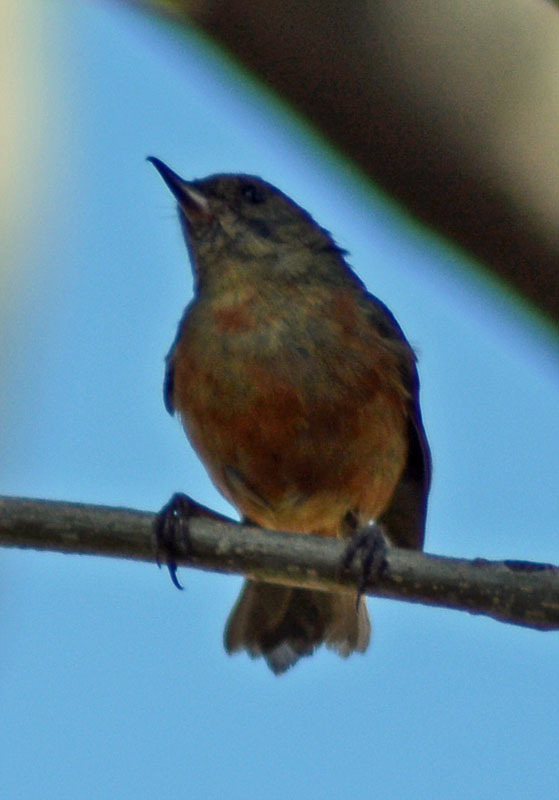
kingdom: Animalia
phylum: Chordata
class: Aves
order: Passeriformes
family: Thraupidae
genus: Diglossa
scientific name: Diglossa baritula
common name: Cinnamon-bellied flowerpiercer
